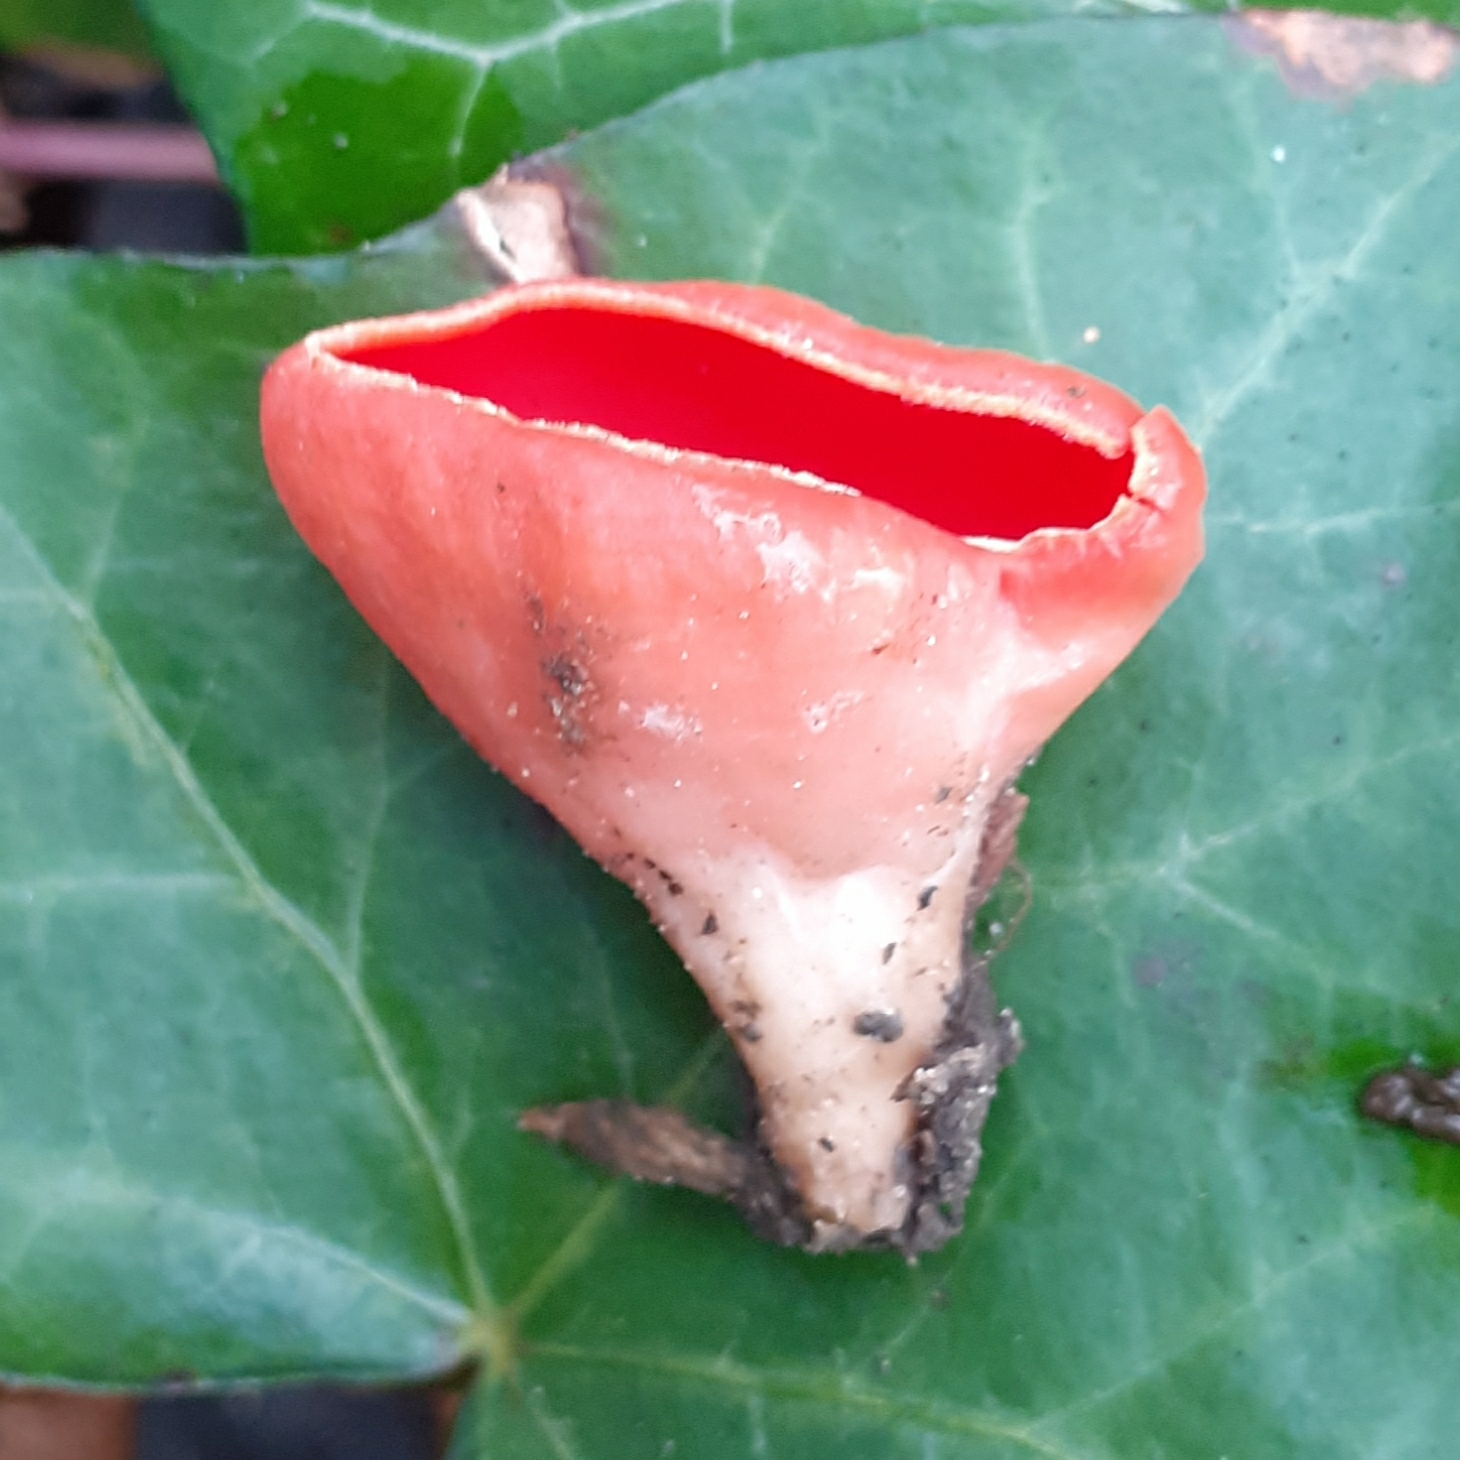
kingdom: Fungi
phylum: Ascomycota
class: Pezizomycetes
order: Pezizales
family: Sarcoscyphaceae
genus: Sarcoscypha
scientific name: Sarcoscypha
